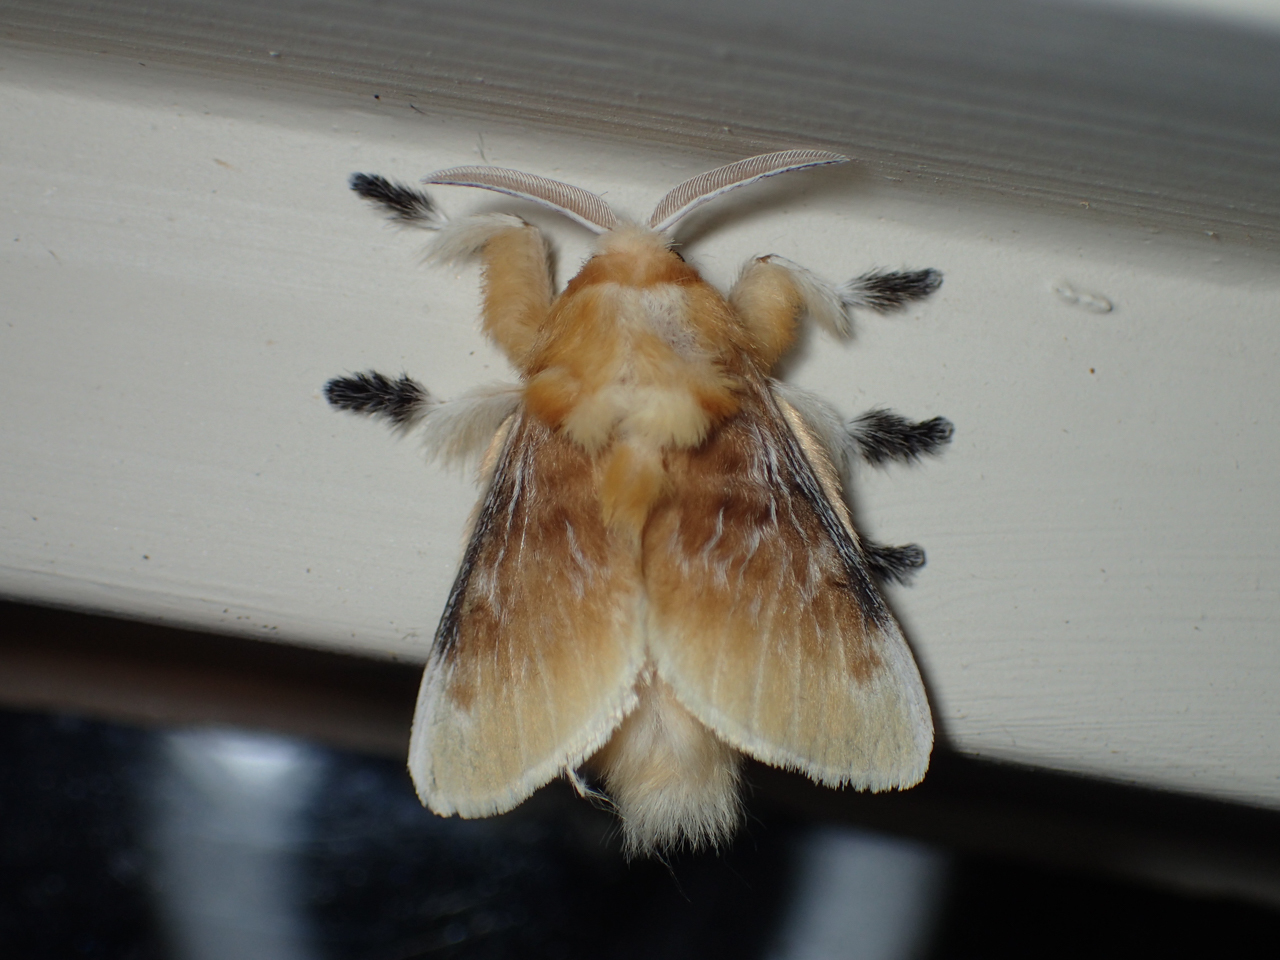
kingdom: Animalia
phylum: Arthropoda
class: Insecta
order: Lepidoptera
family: Megalopygidae
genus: Megalopyge
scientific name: Megalopyge opercularis
